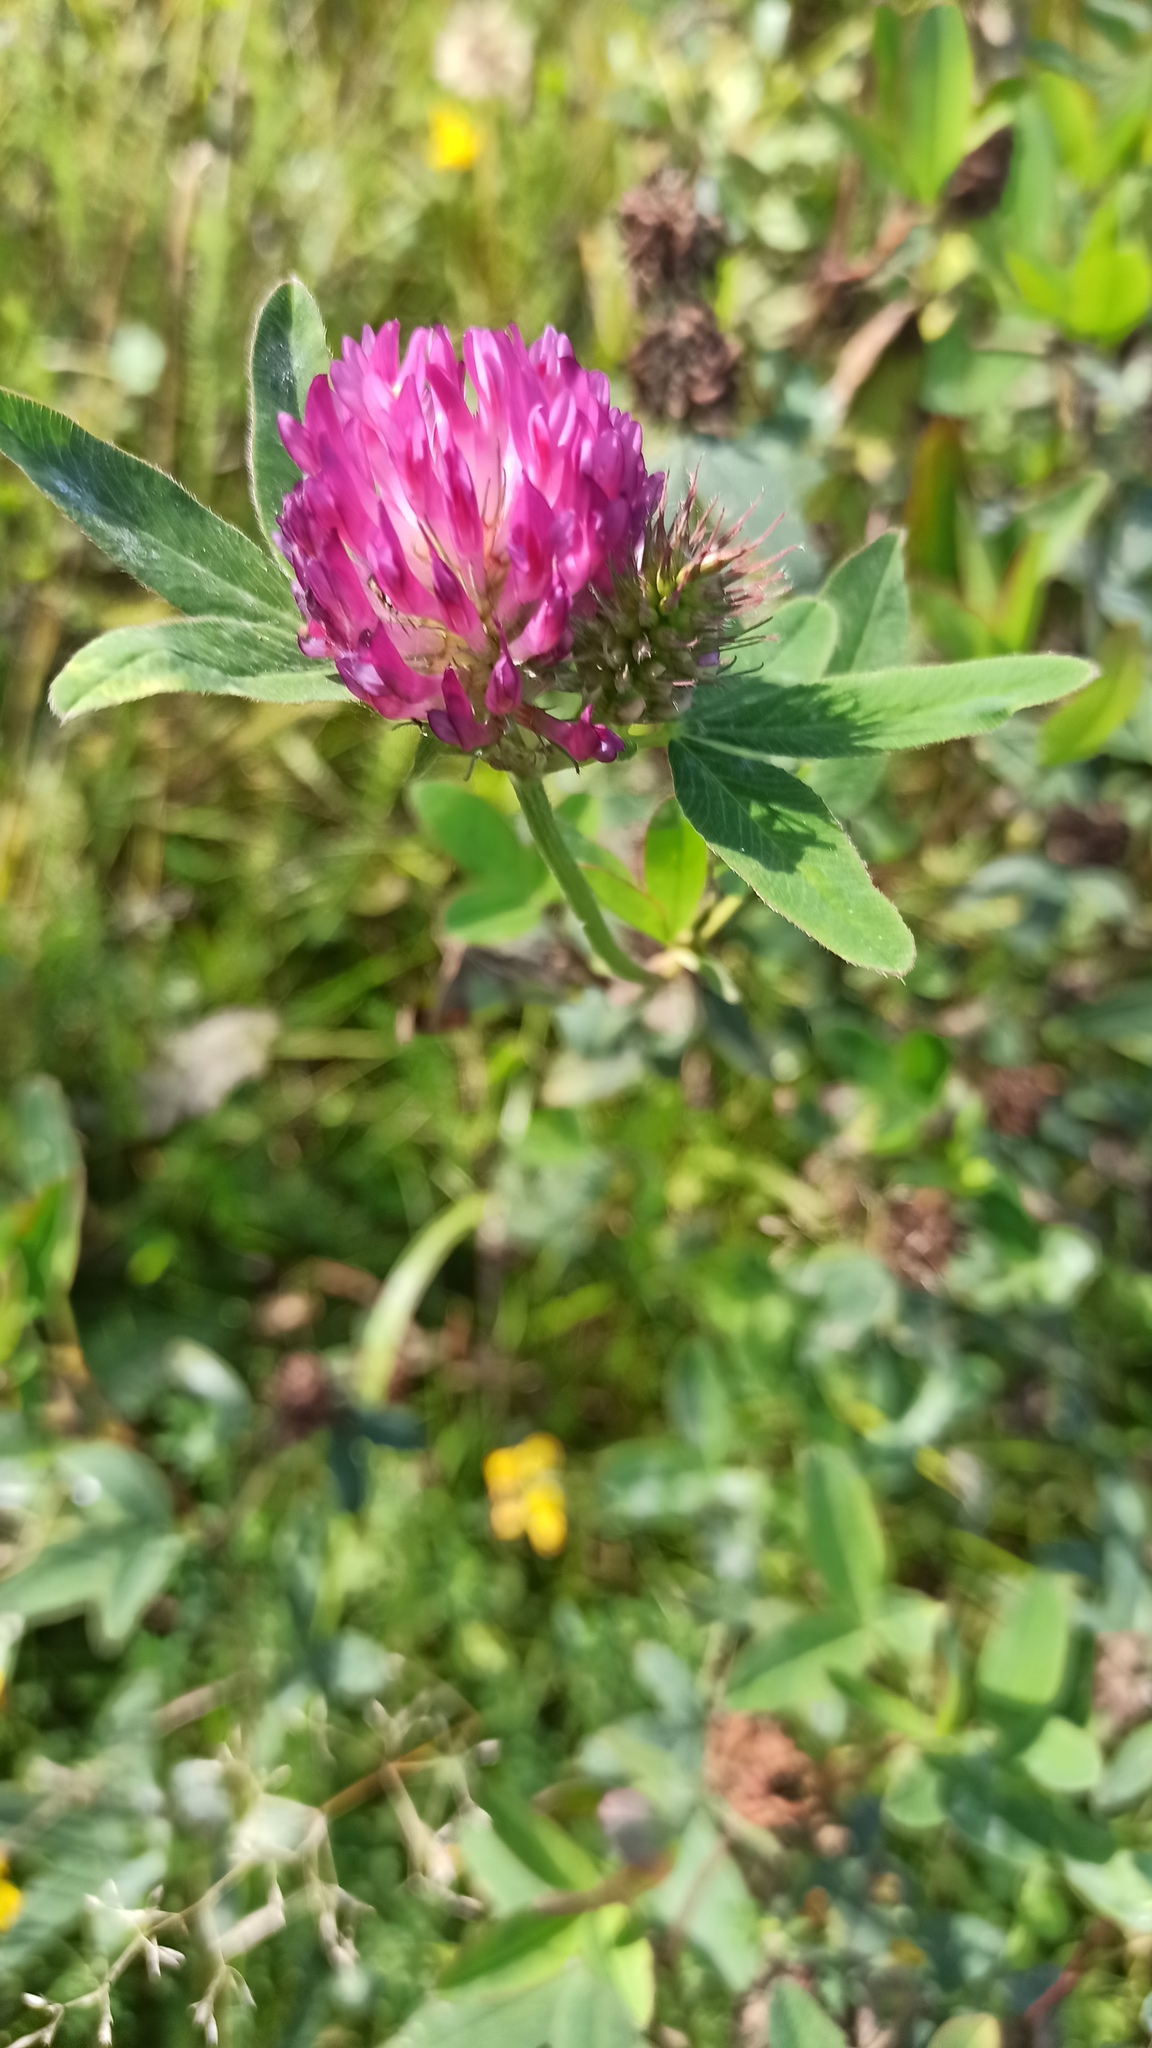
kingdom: Plantae
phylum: Tracheophyta
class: Magnoliopsida
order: Fabales
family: Fabaceae
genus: Trifolium
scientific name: Trifolium medium
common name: Zigzag clover
